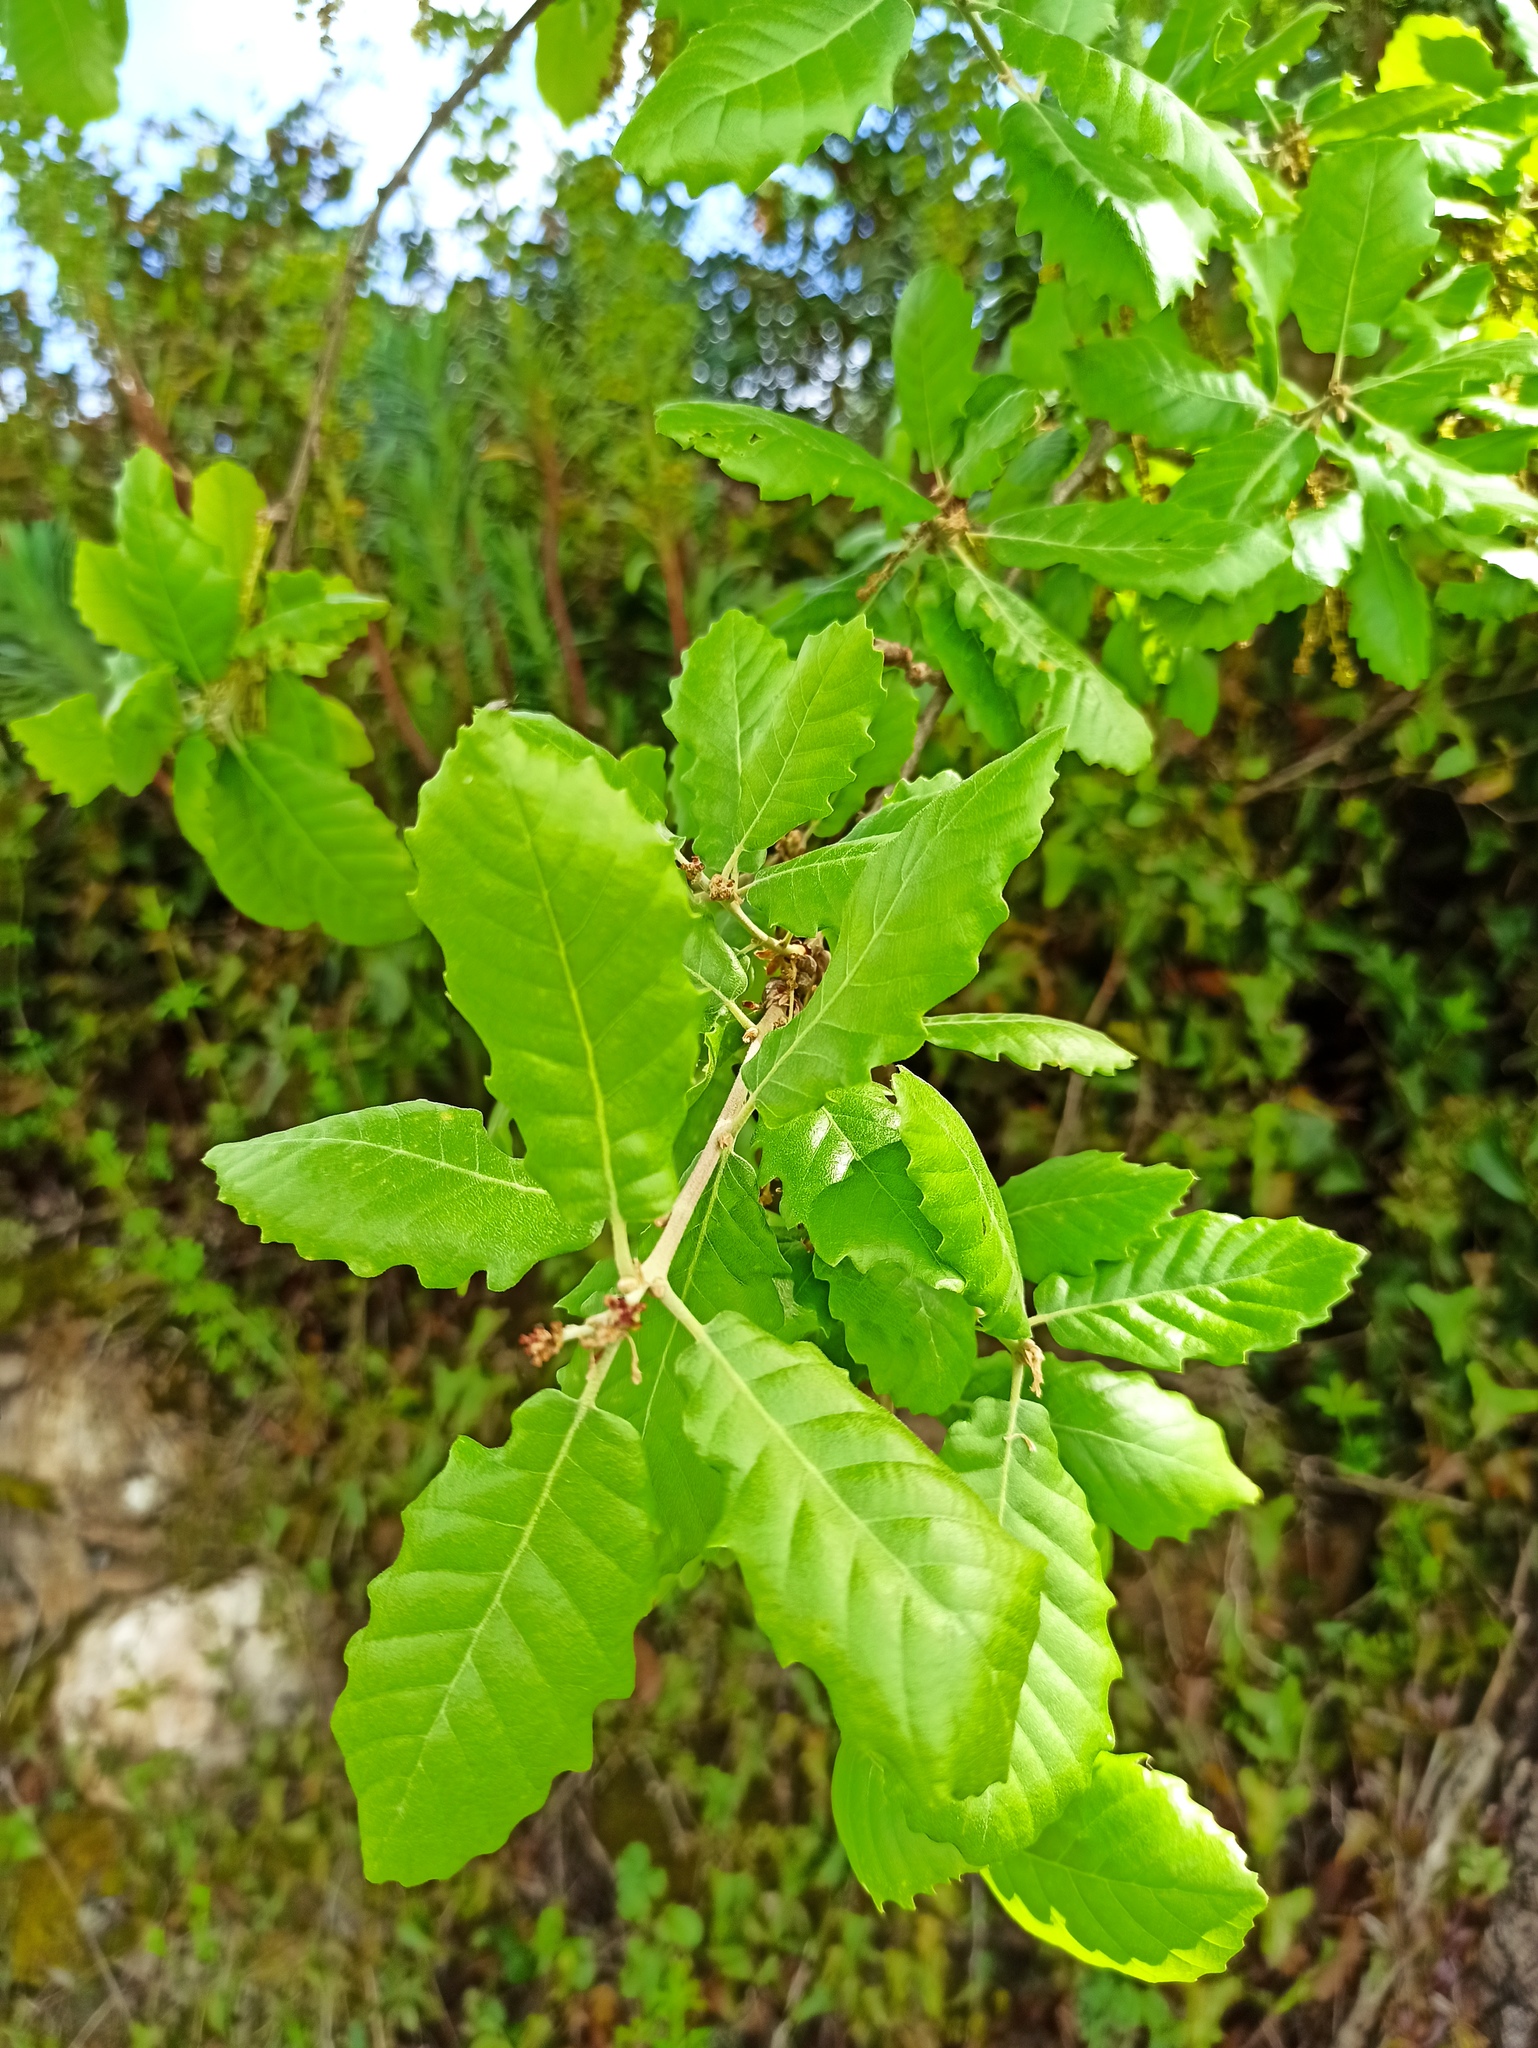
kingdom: Plantae
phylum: Tracheophyta
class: Magnoliopsida
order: Fagales
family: Fagaceae
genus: Quercus
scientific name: Quercus faginea
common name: Gall oak tree
